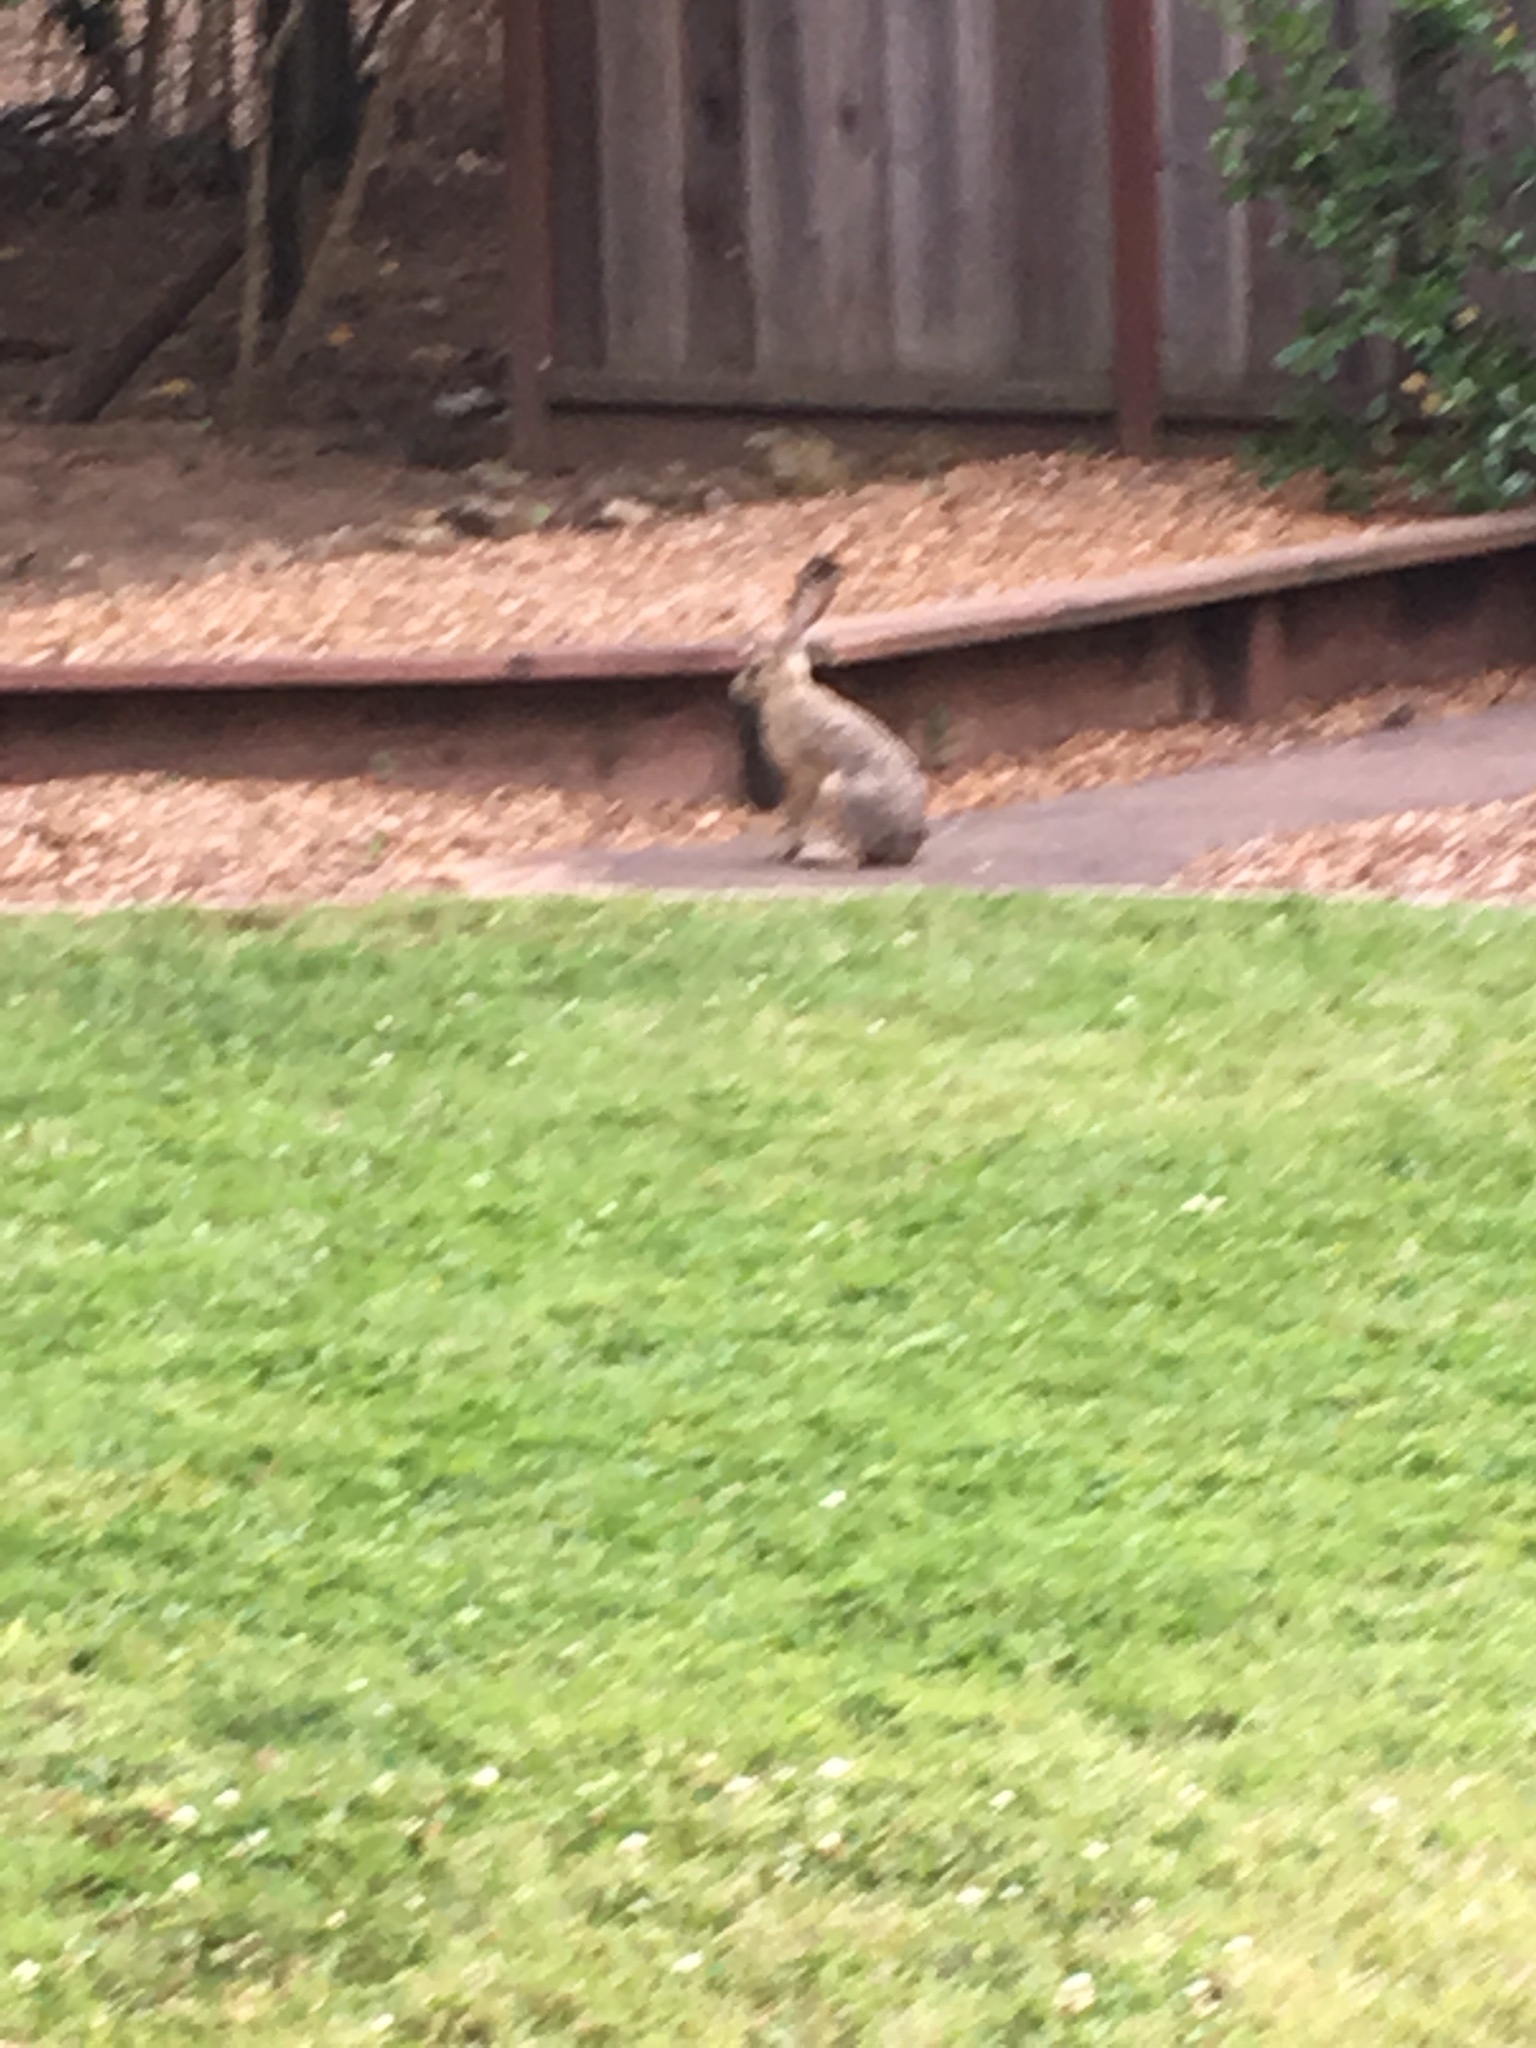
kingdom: Animalia
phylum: Chordata
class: Mammalia
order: Lagomorpha
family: Leporidae
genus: Lepus
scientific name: Lepus californicus
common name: Black-tailed jackrabbit
